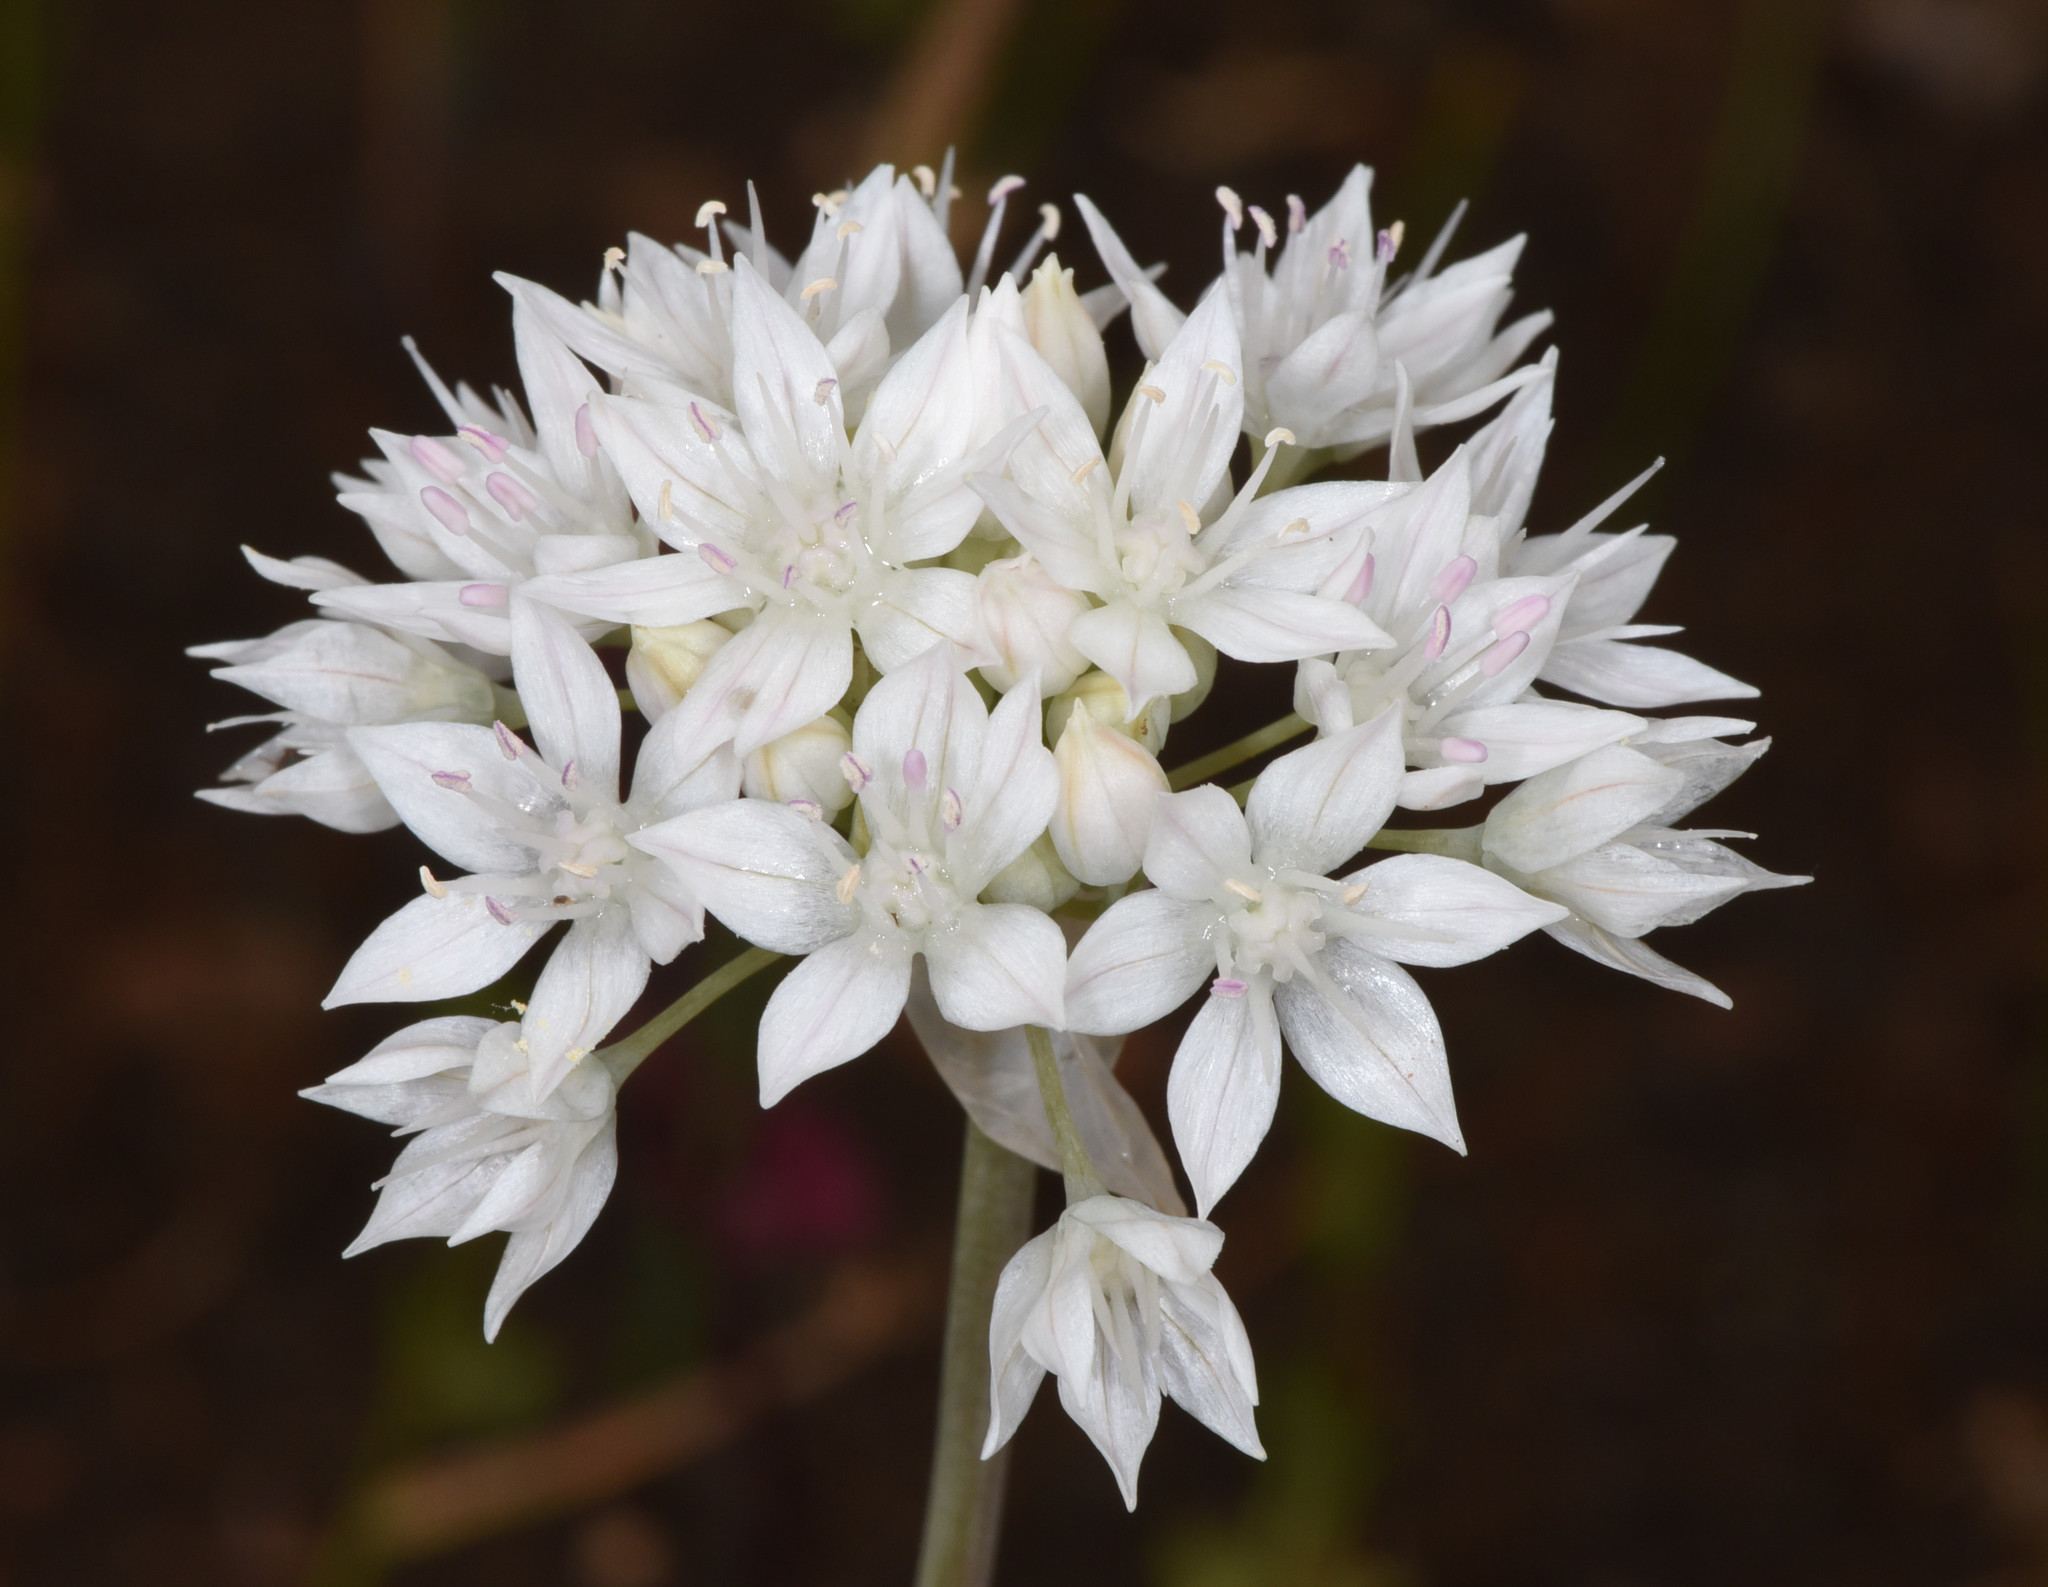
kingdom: Plantae
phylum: Tracheophyta
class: Liliopsida
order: Asparagales
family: Amaryllidaceae
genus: Allium
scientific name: Allium amplectens
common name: Narrow-leaved onion
